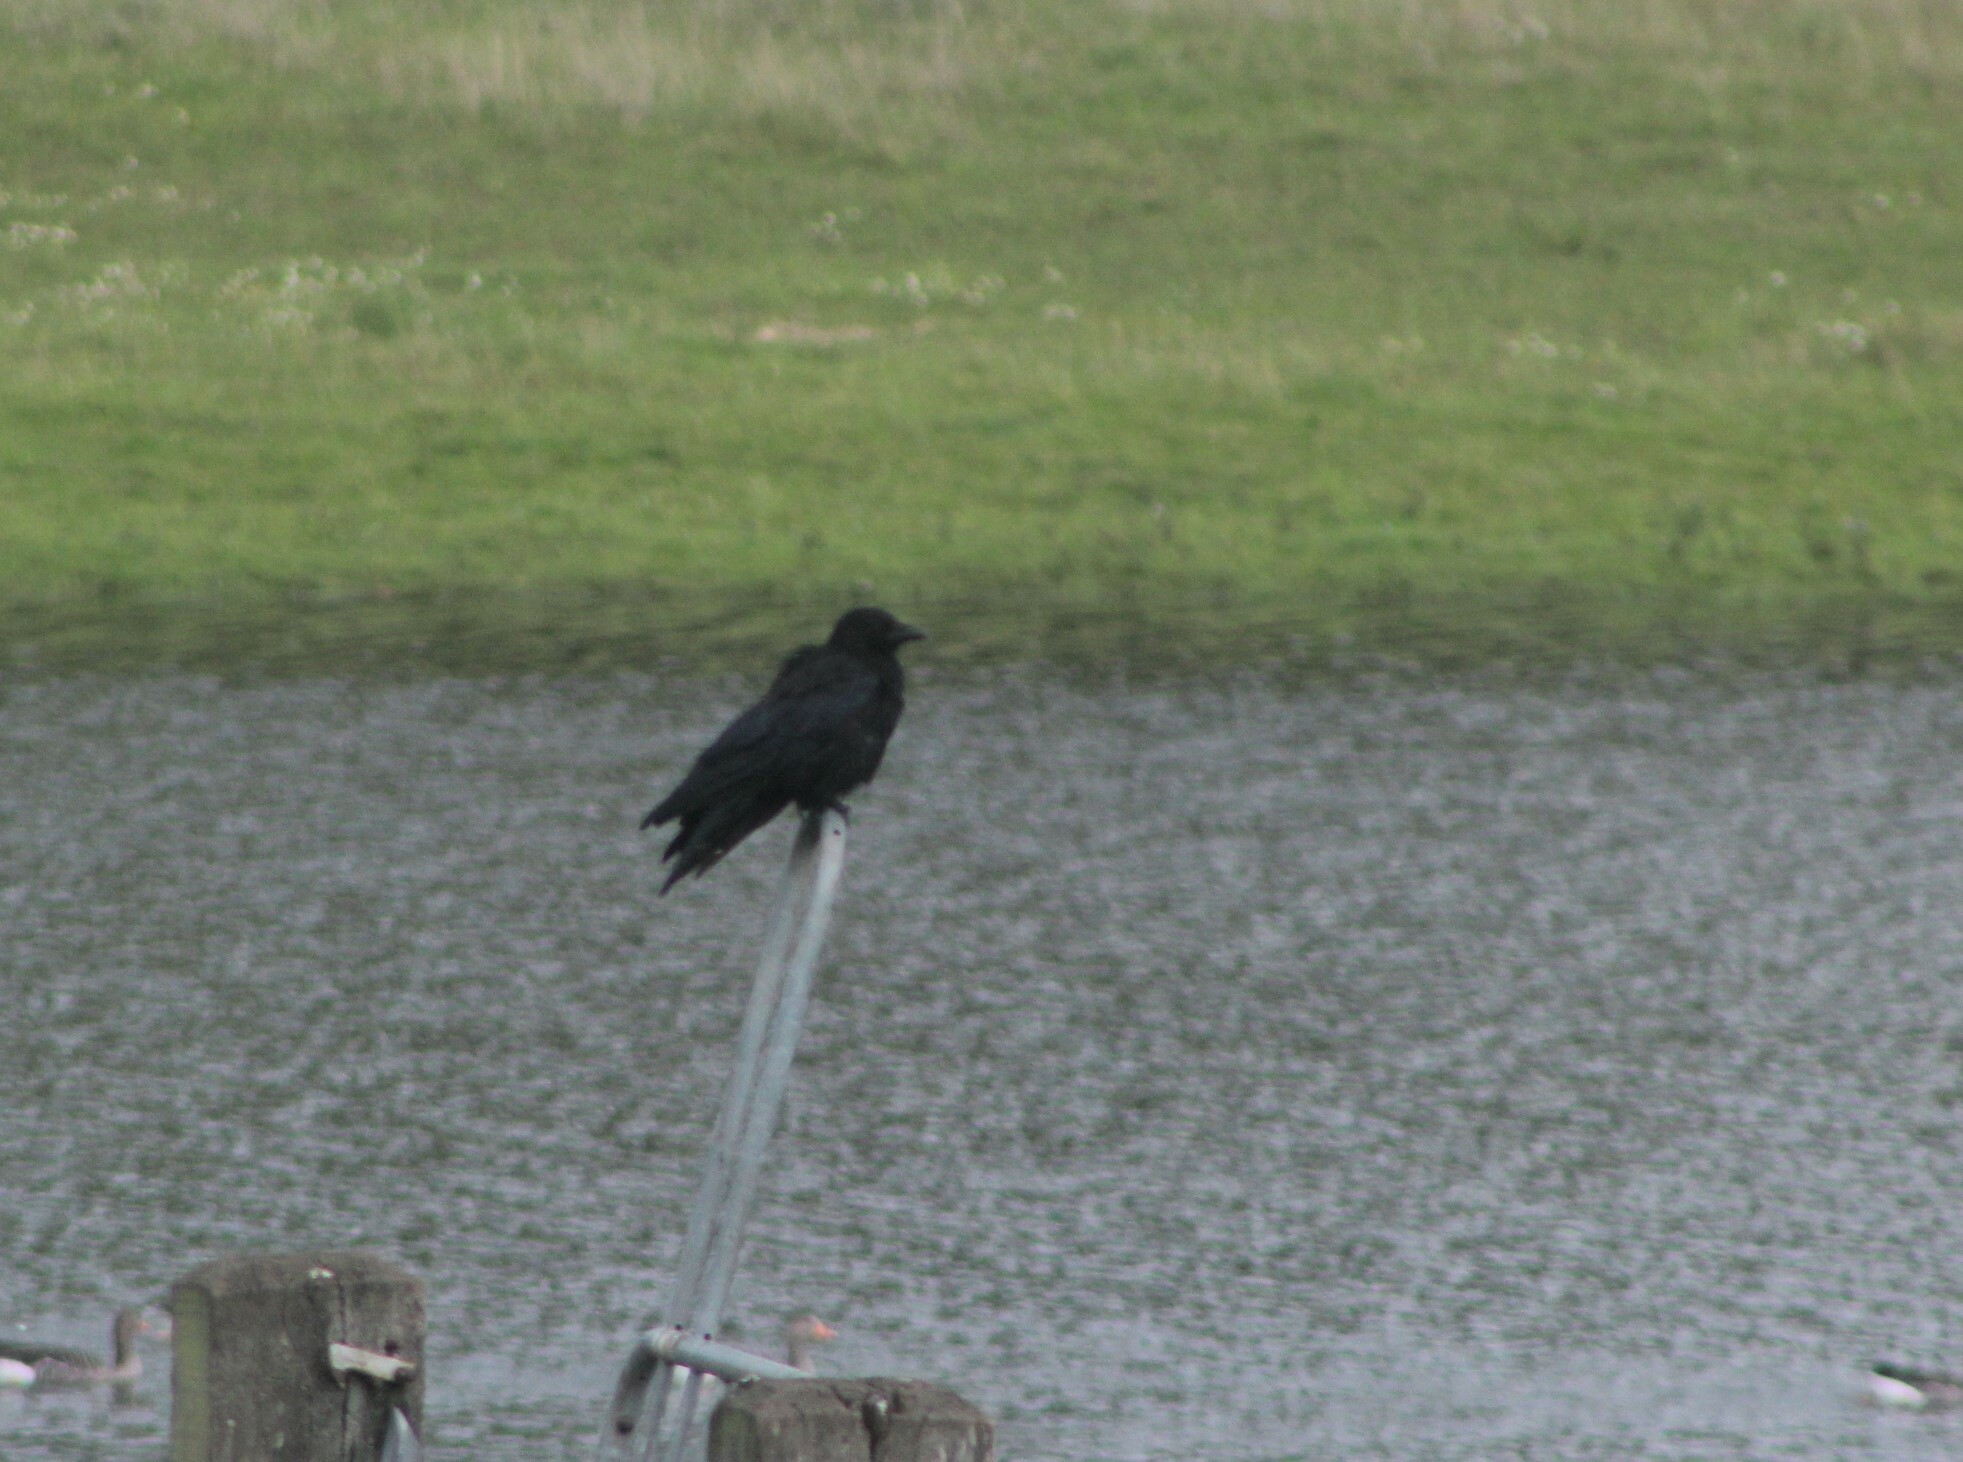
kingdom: Animalia
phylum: Chordata
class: Aves
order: Passeriformes
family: Corvidae
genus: Corvus
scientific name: Corvus corone
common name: Carrion crow
